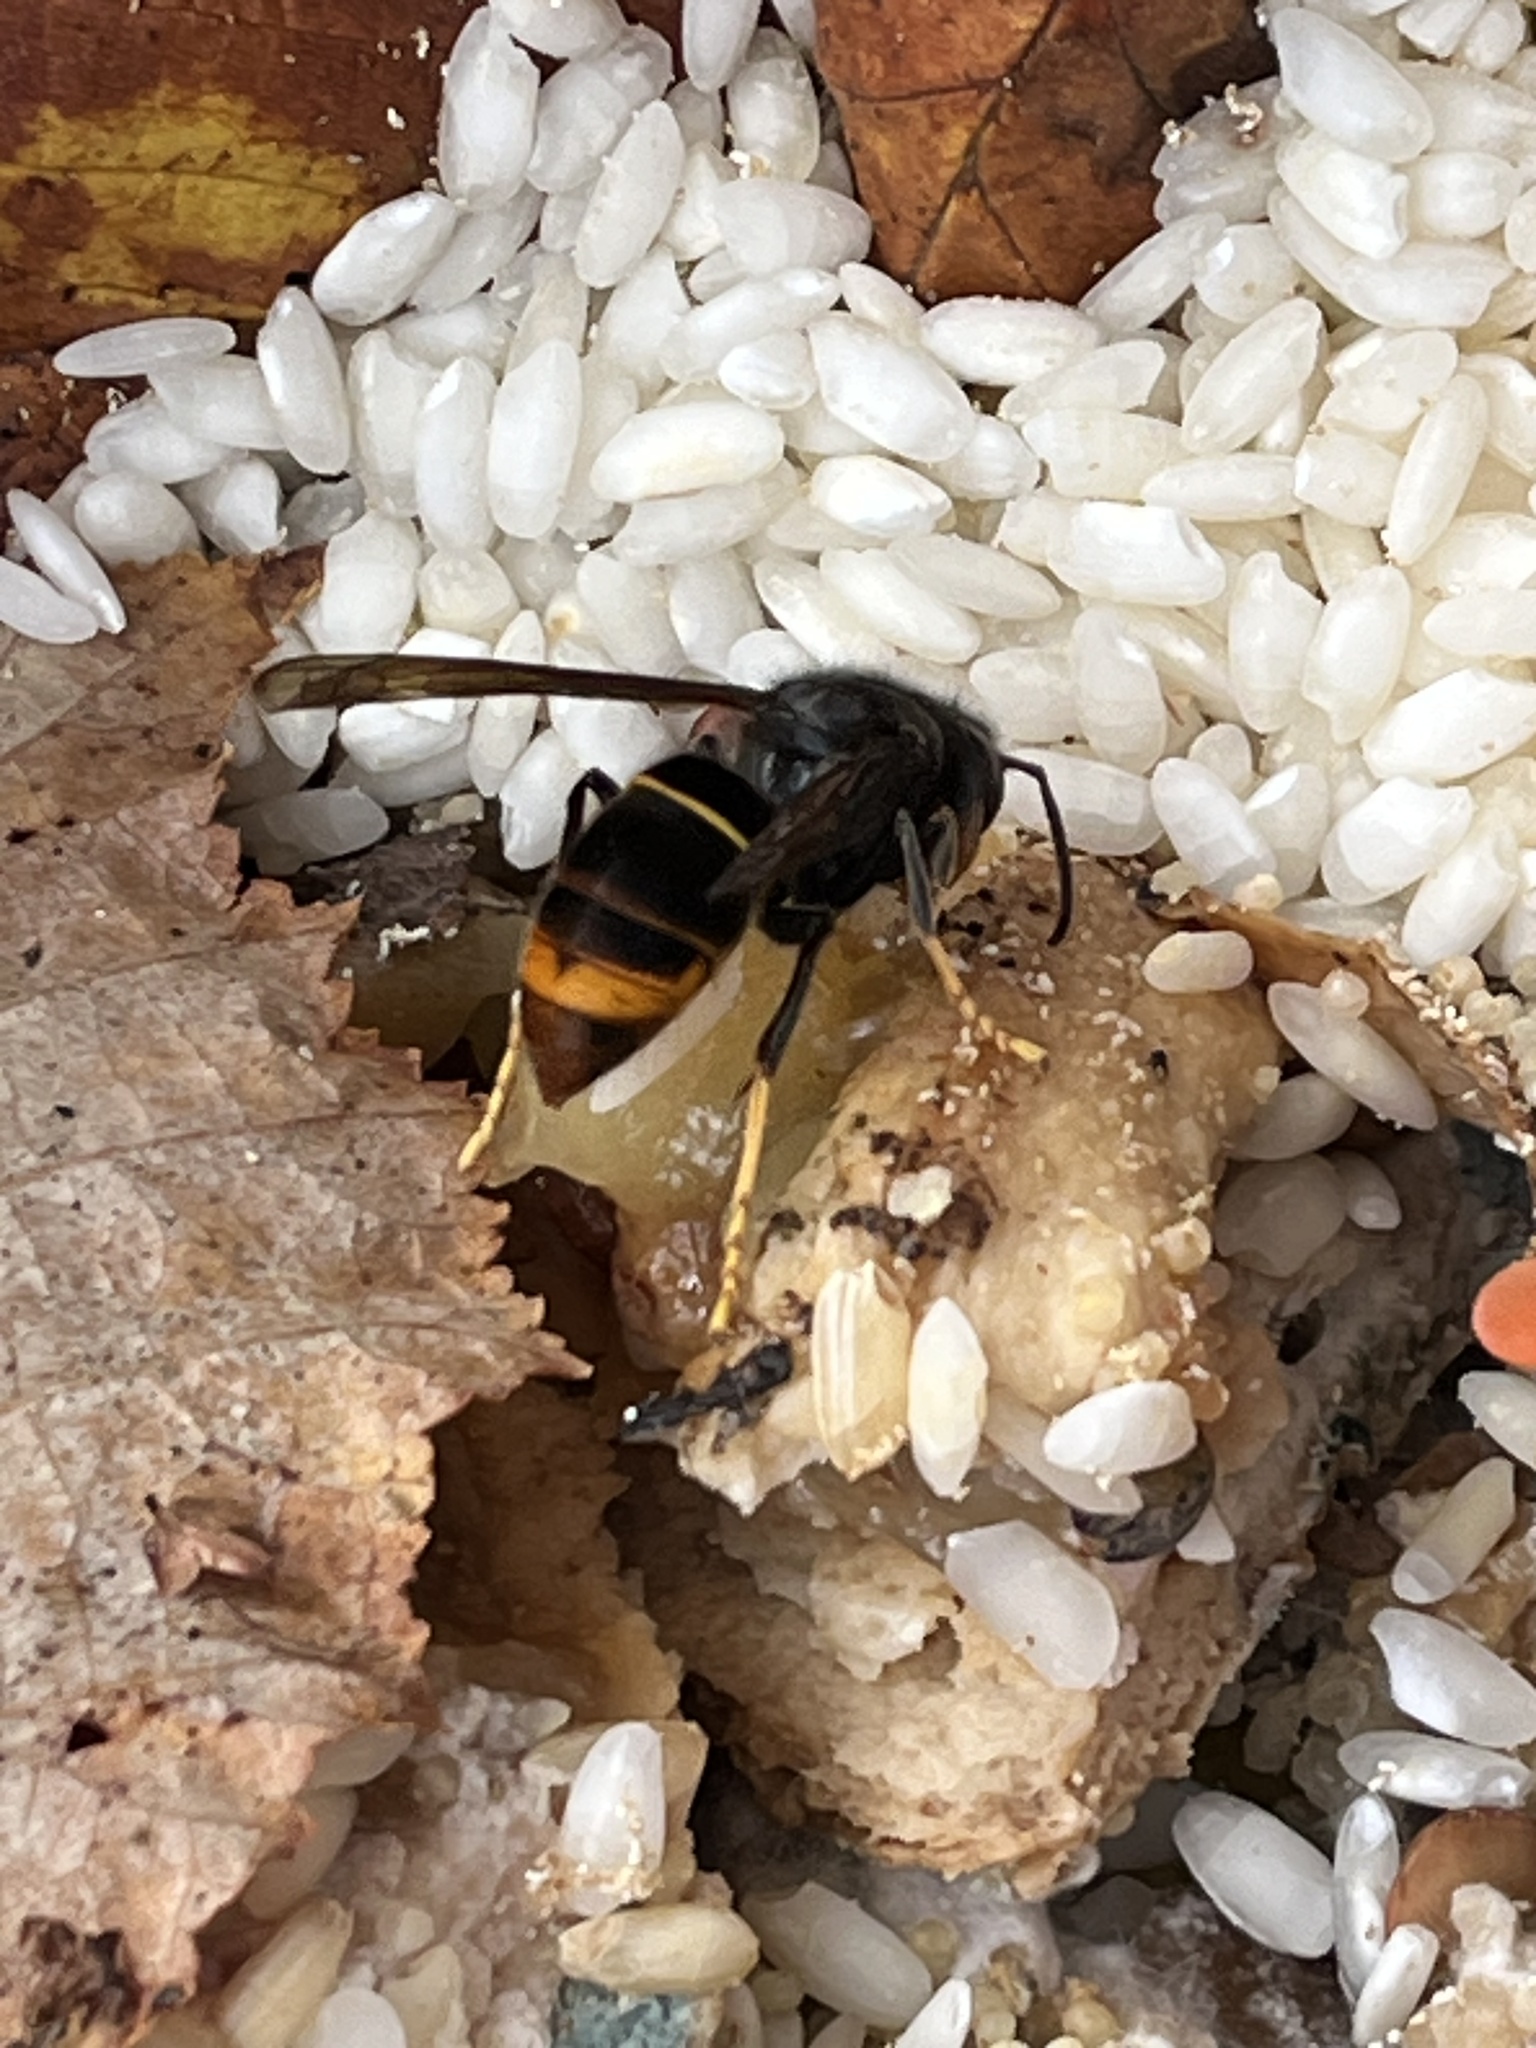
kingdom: Animalia
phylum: Arthropoda
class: Insecta
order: Hymenoptera
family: Vespidae
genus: Vespa
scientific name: Vespa velutina
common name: Asian hornet
